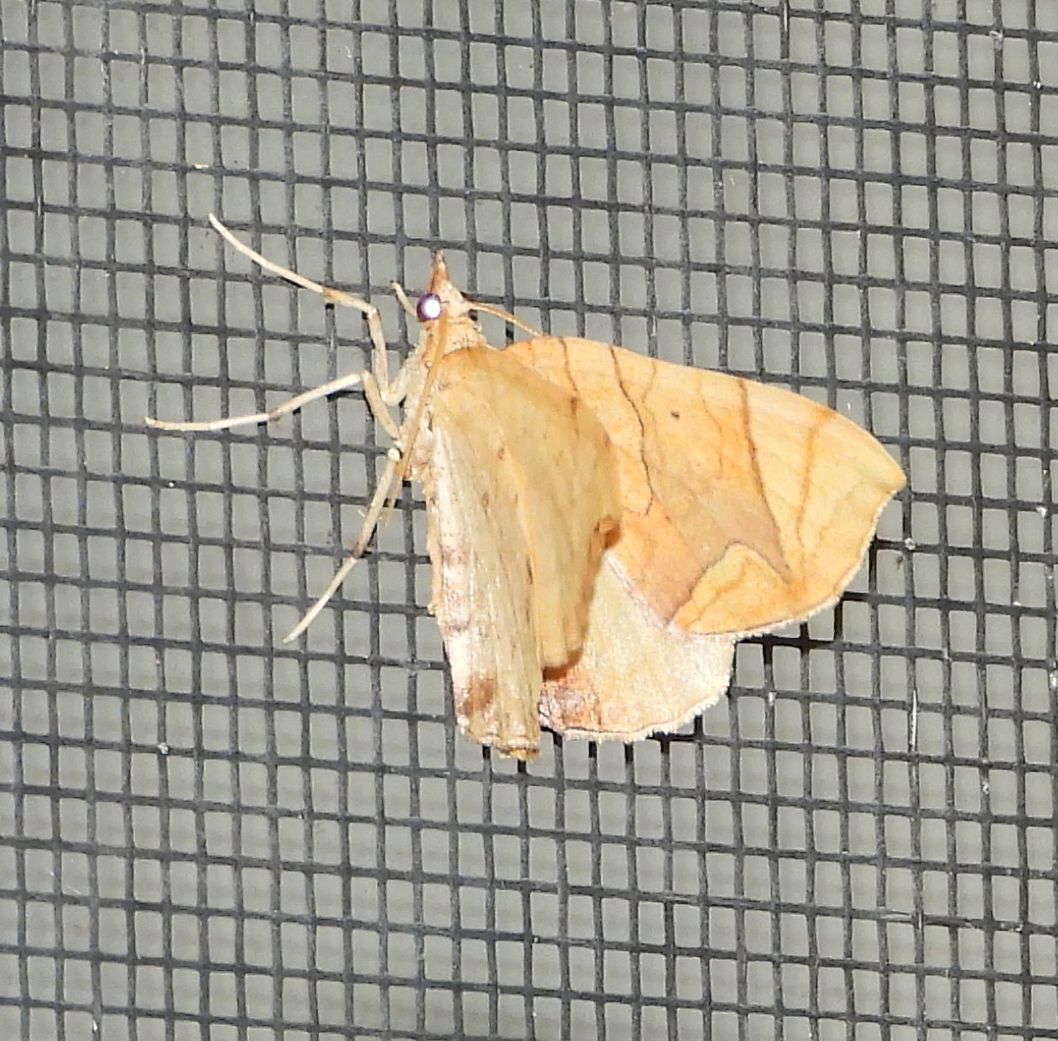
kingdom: Animalia
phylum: Arthropoda
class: Insecta
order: Lepidoptera
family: Geometridae
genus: Eulithis
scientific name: Eulithis
